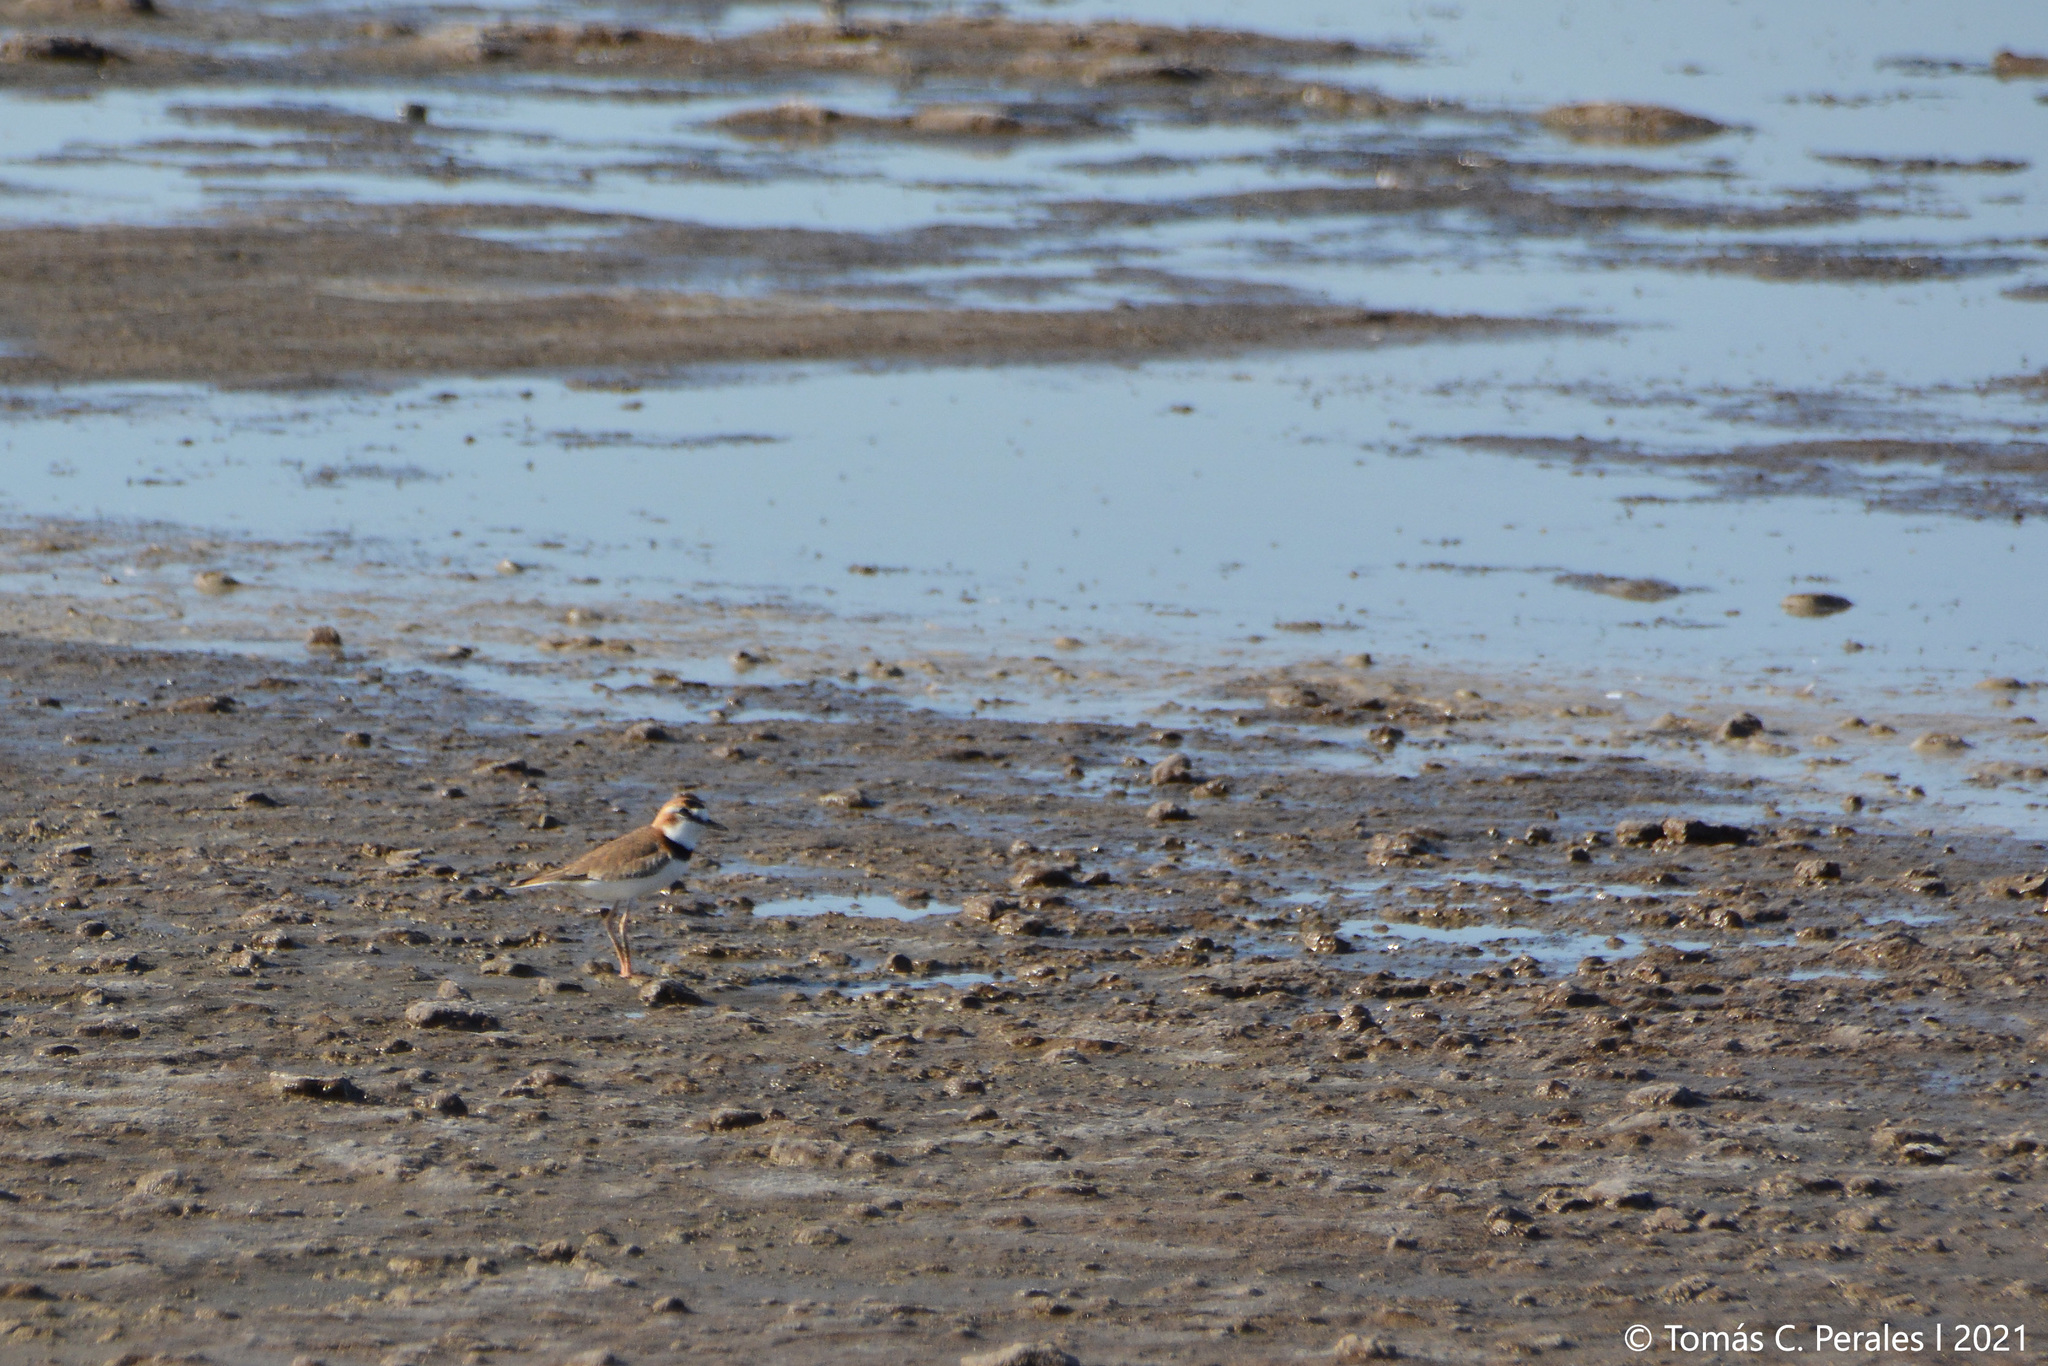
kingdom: Animalia
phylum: Chordata
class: Aves
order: Charadriiformes
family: Charadriidae
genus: Anarhynchus
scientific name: Anarhynchus
